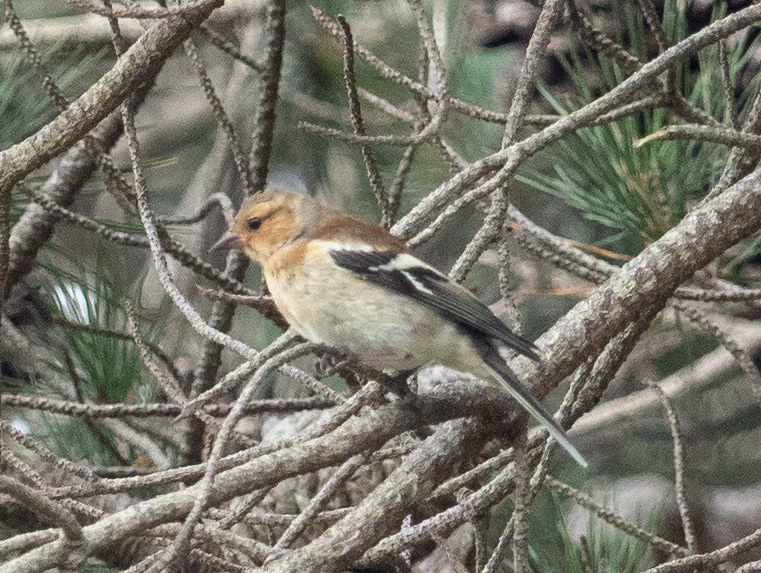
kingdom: Animalia
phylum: Chordata
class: Aves
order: Passeriformes
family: Fringillidae
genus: Fringilla
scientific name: Fringilla coelebs
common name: Common chaffinch
